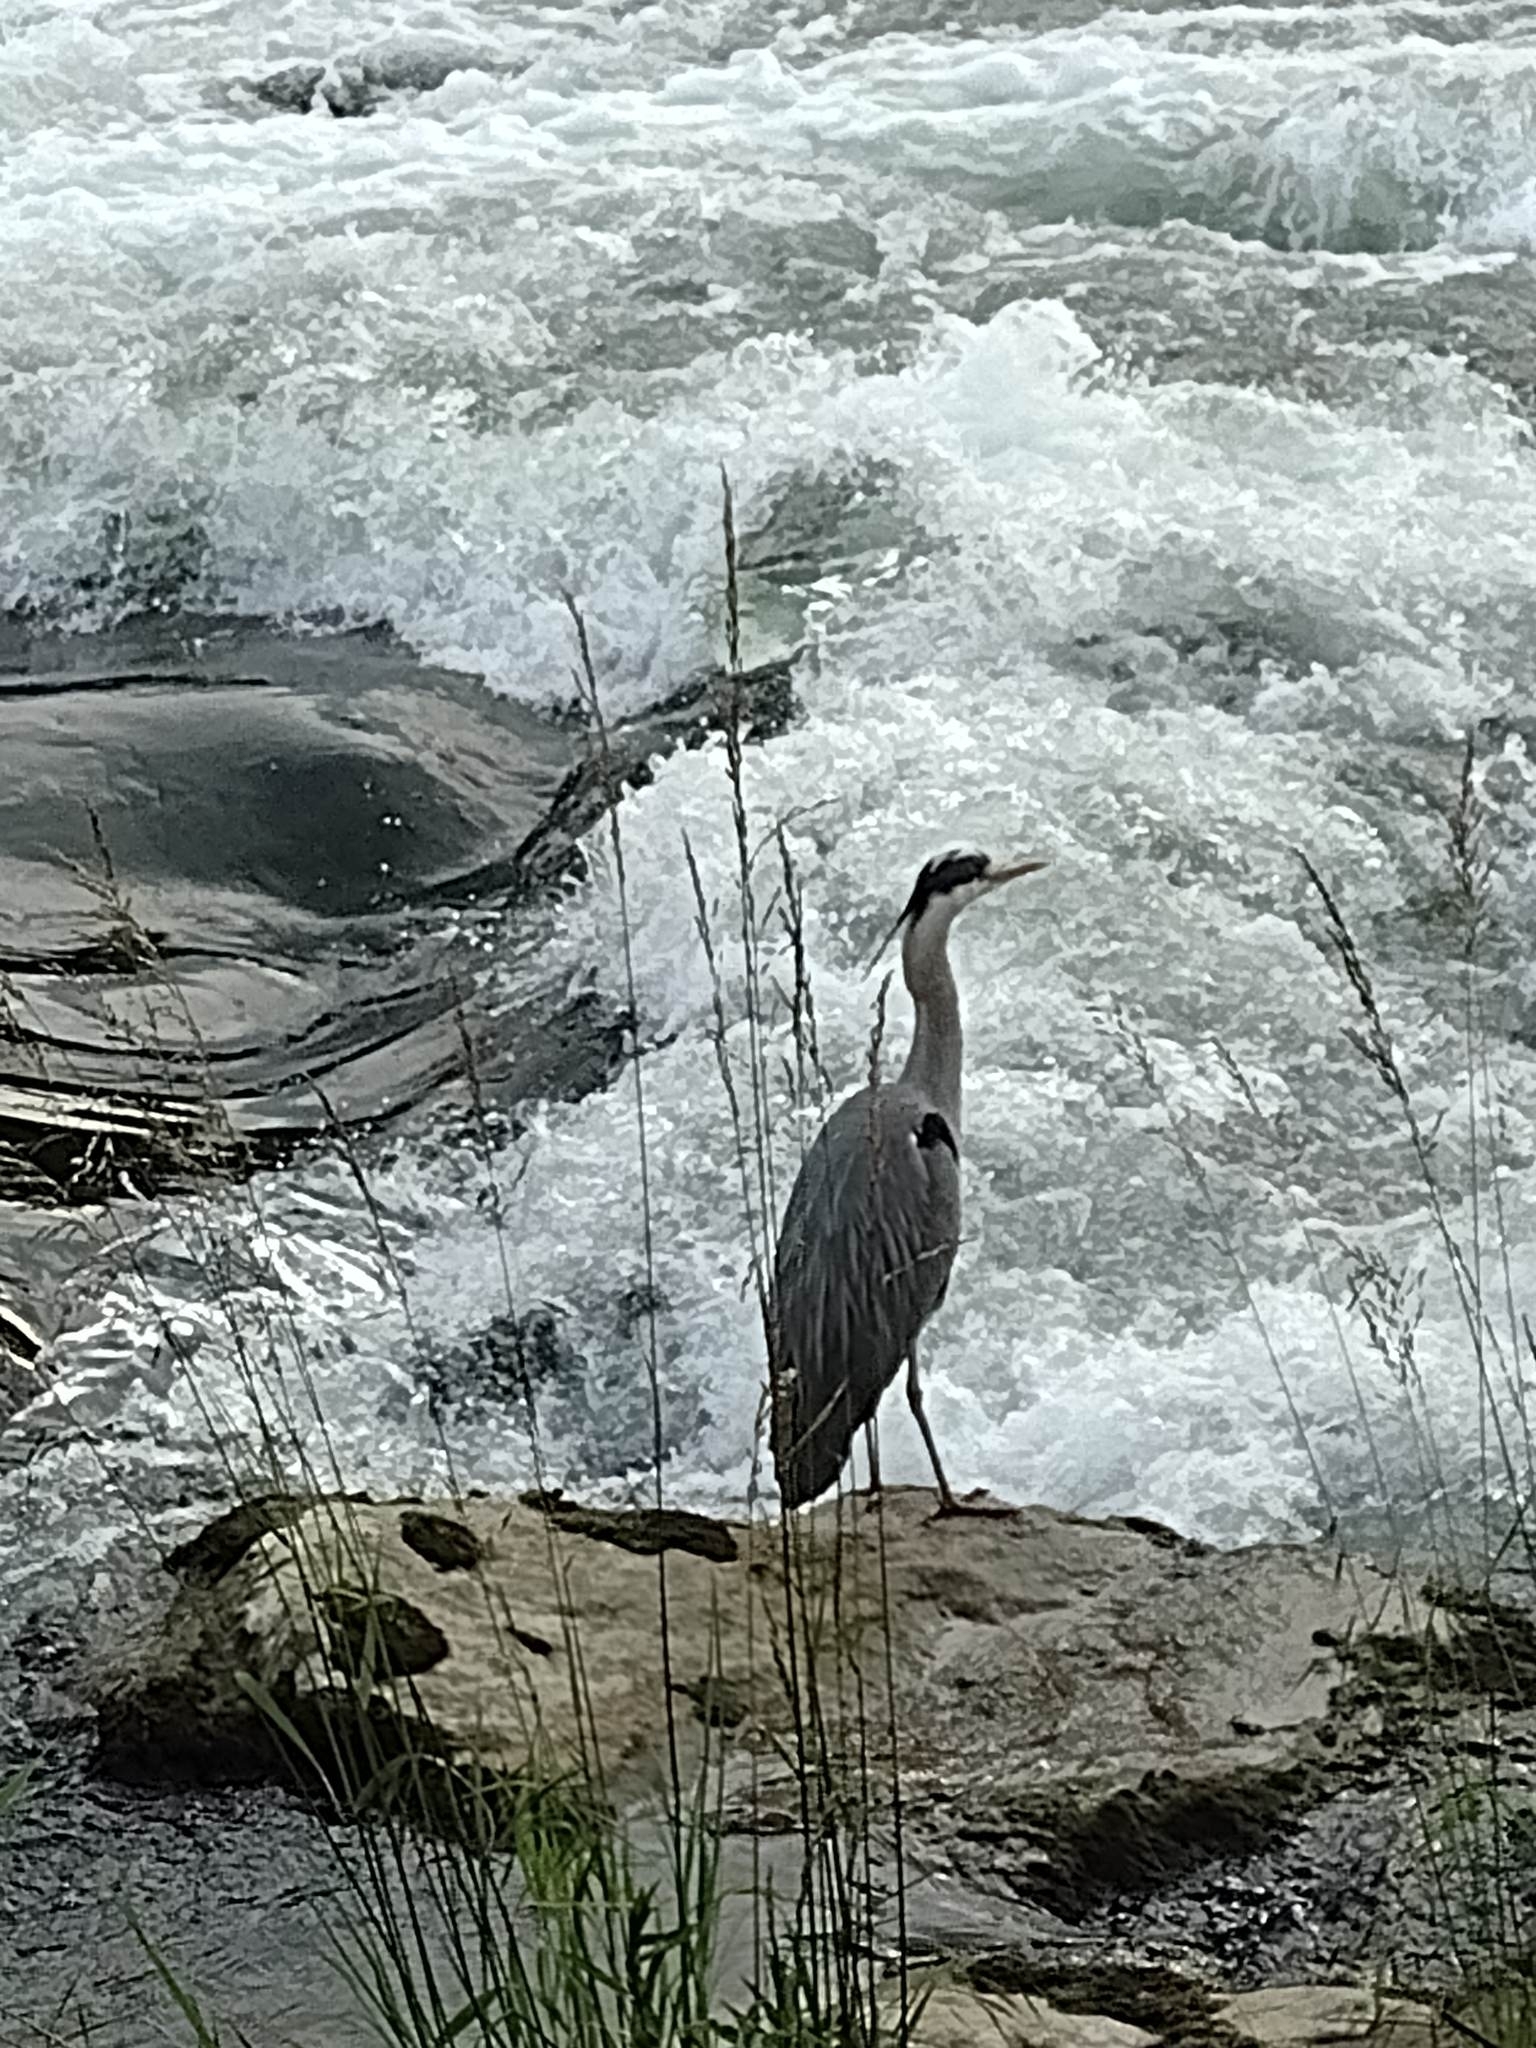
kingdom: Animalia
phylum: Chordata
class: Aves
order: Pelecaniformes
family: Ardeidae
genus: Ardea
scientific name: Ardea cinerea
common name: Grey heron
